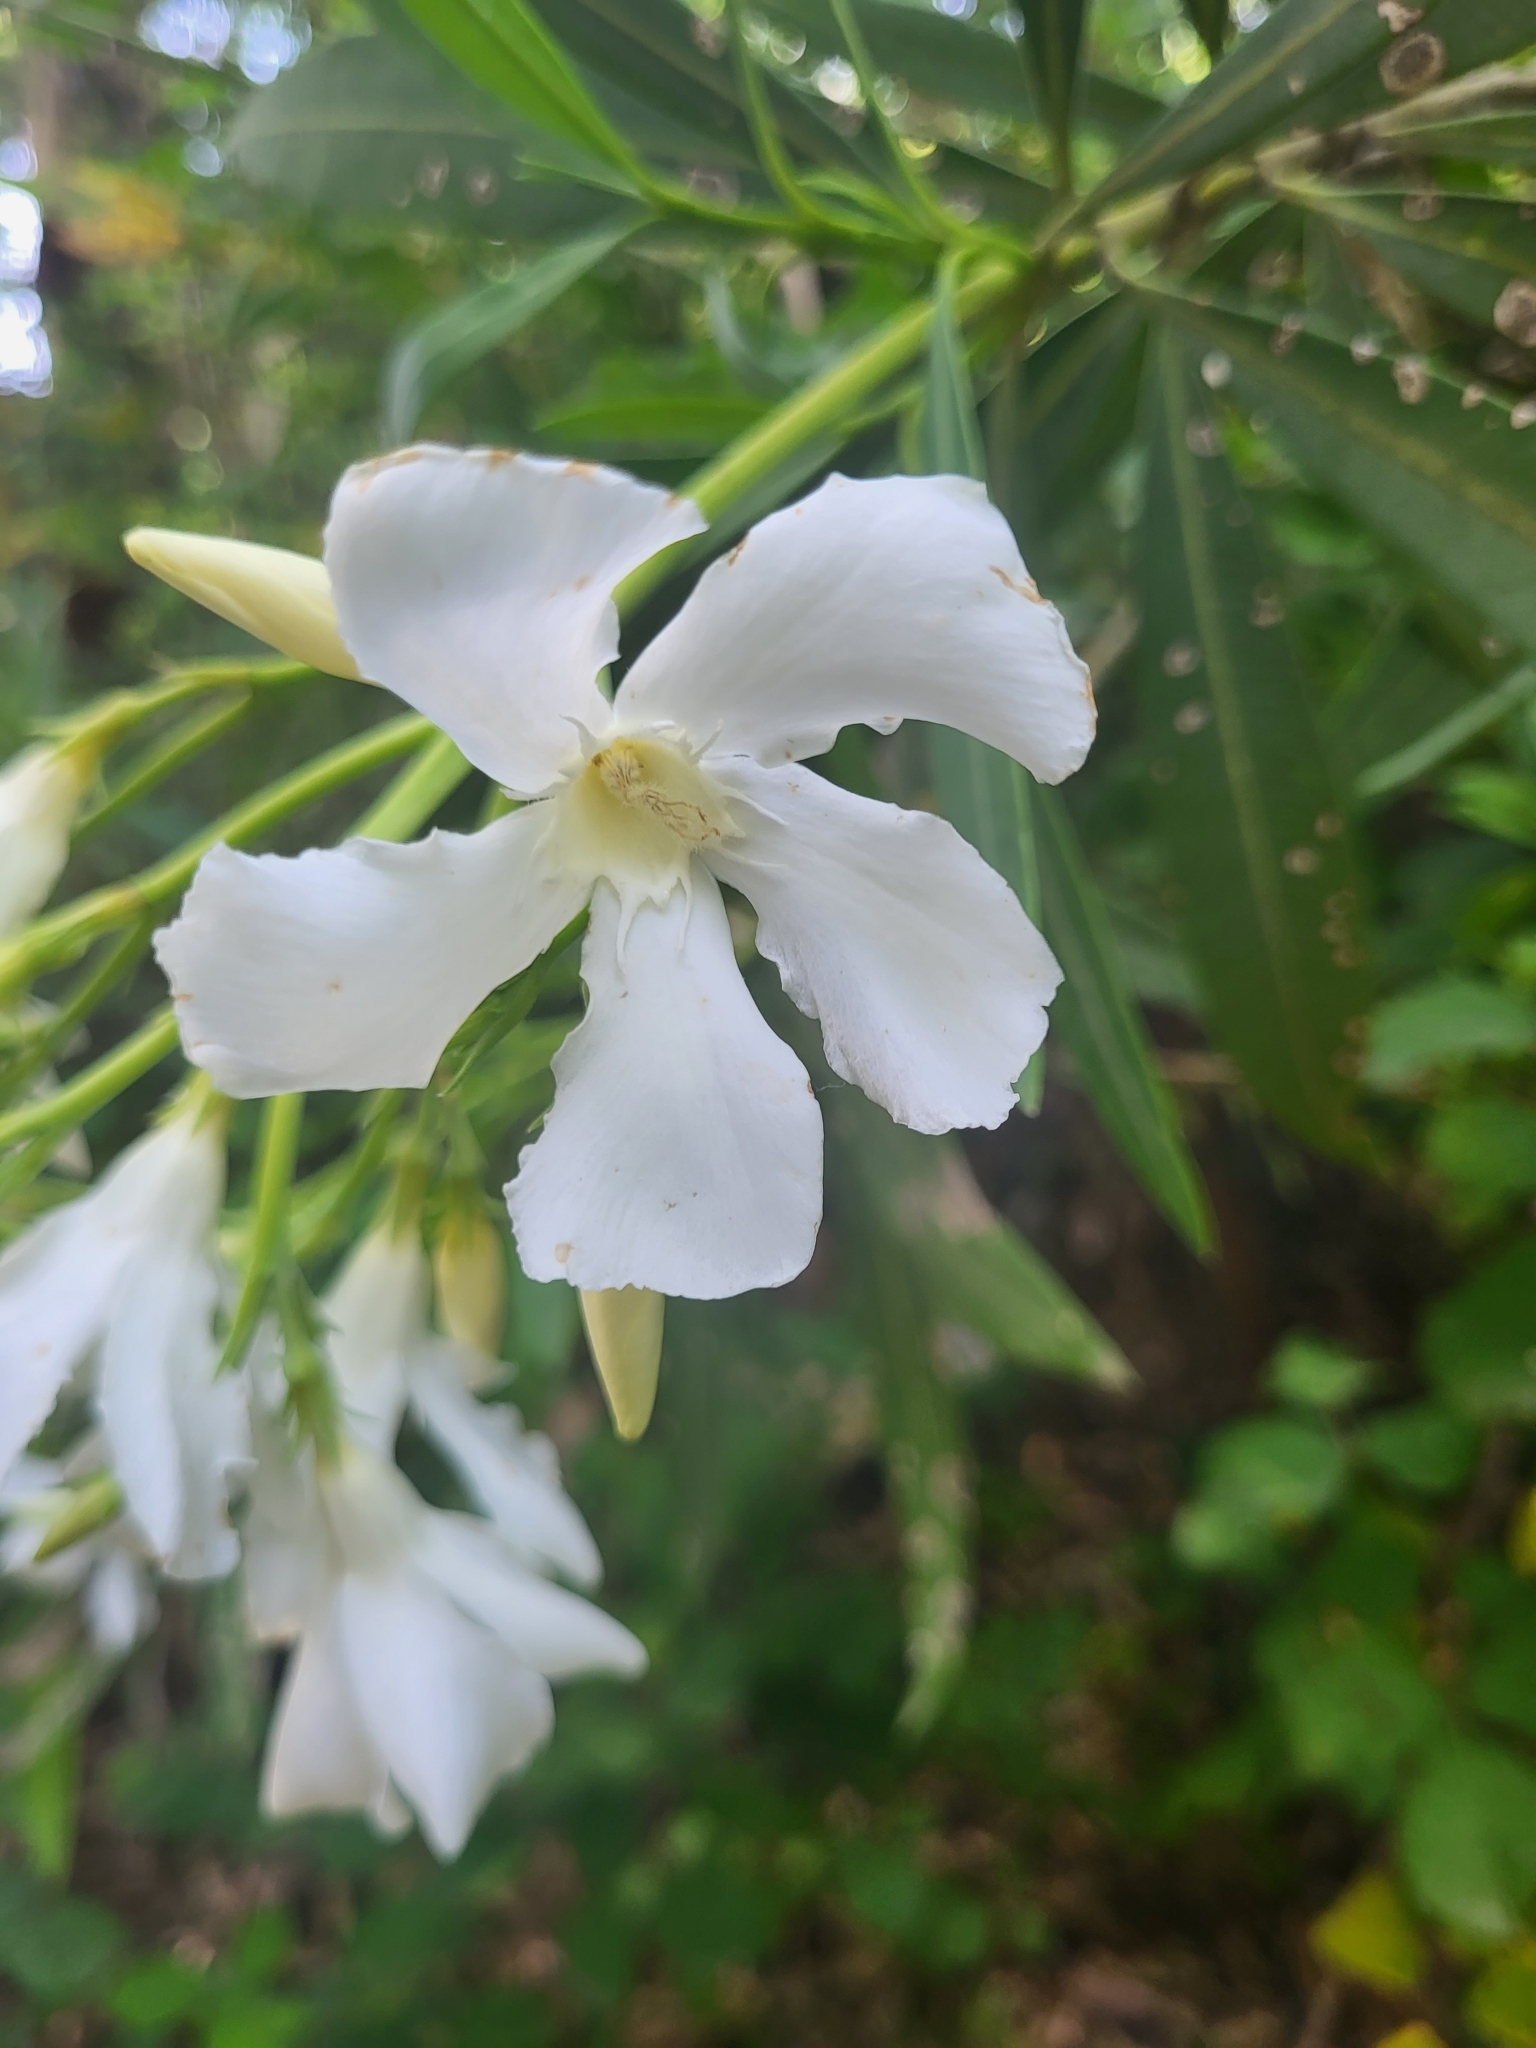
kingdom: Plantae
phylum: Tracheophyta
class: Magnoliopsida
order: Gentianales
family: Apocynaceae
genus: Nerium
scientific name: Nerium oleander
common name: Oleander
